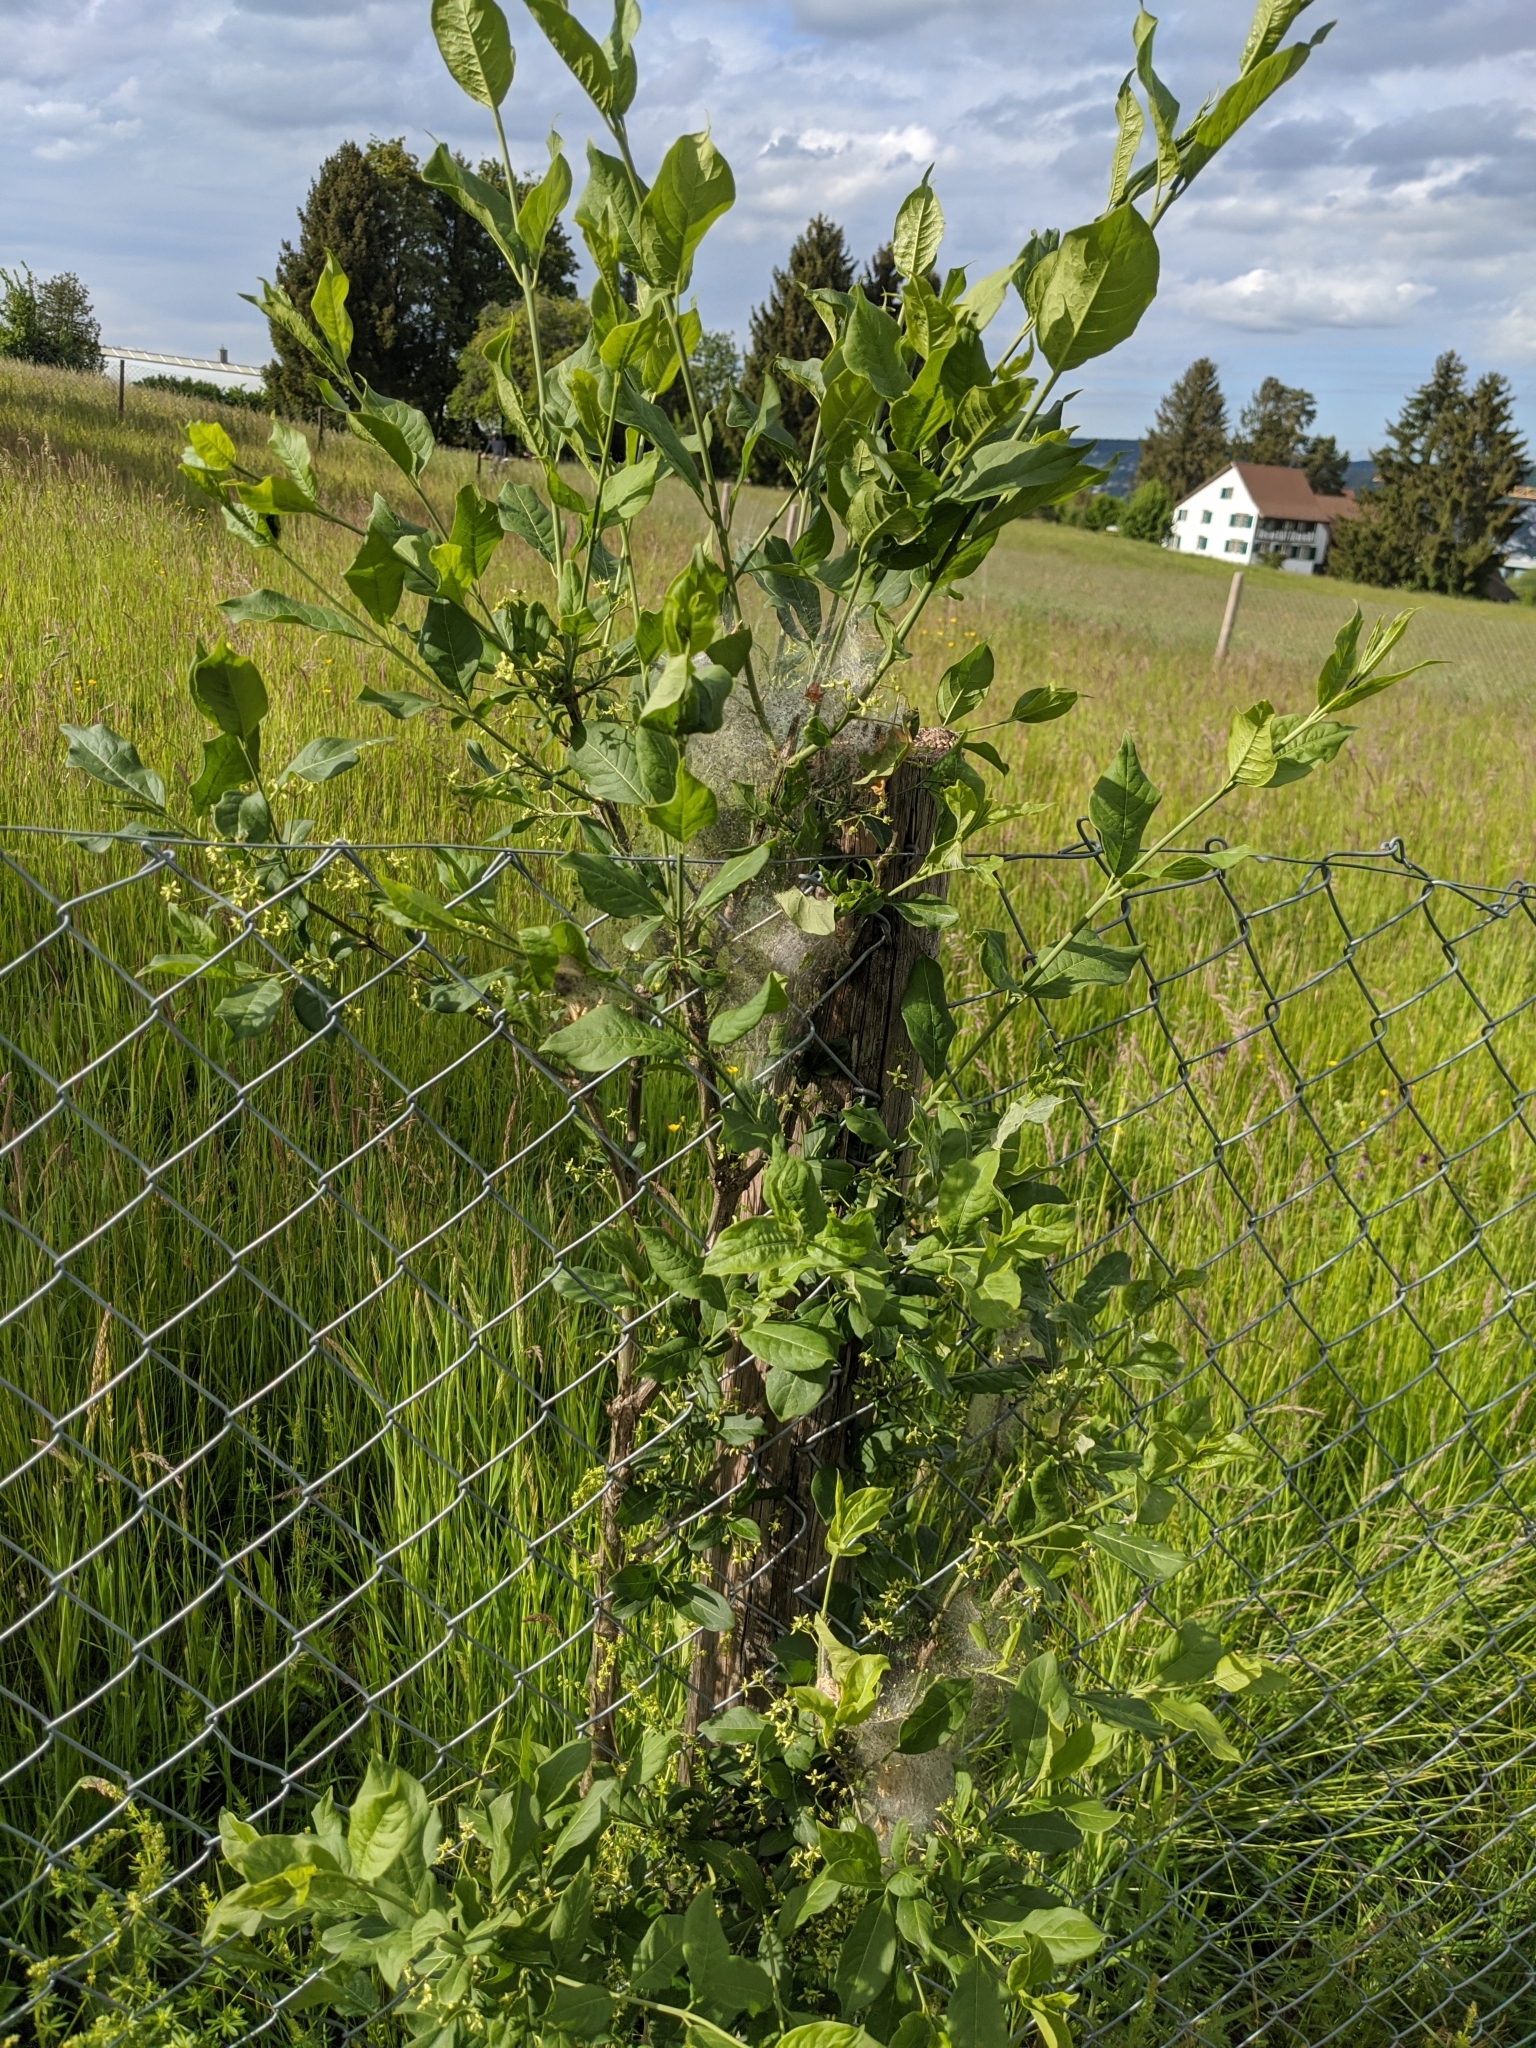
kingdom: Animalia
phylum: Arthropoda
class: Insecta
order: Lepidoptera
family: Yponomeutidae
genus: Yponomeuta
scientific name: Yponomeuta cagnagellus
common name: Spindle ermine
